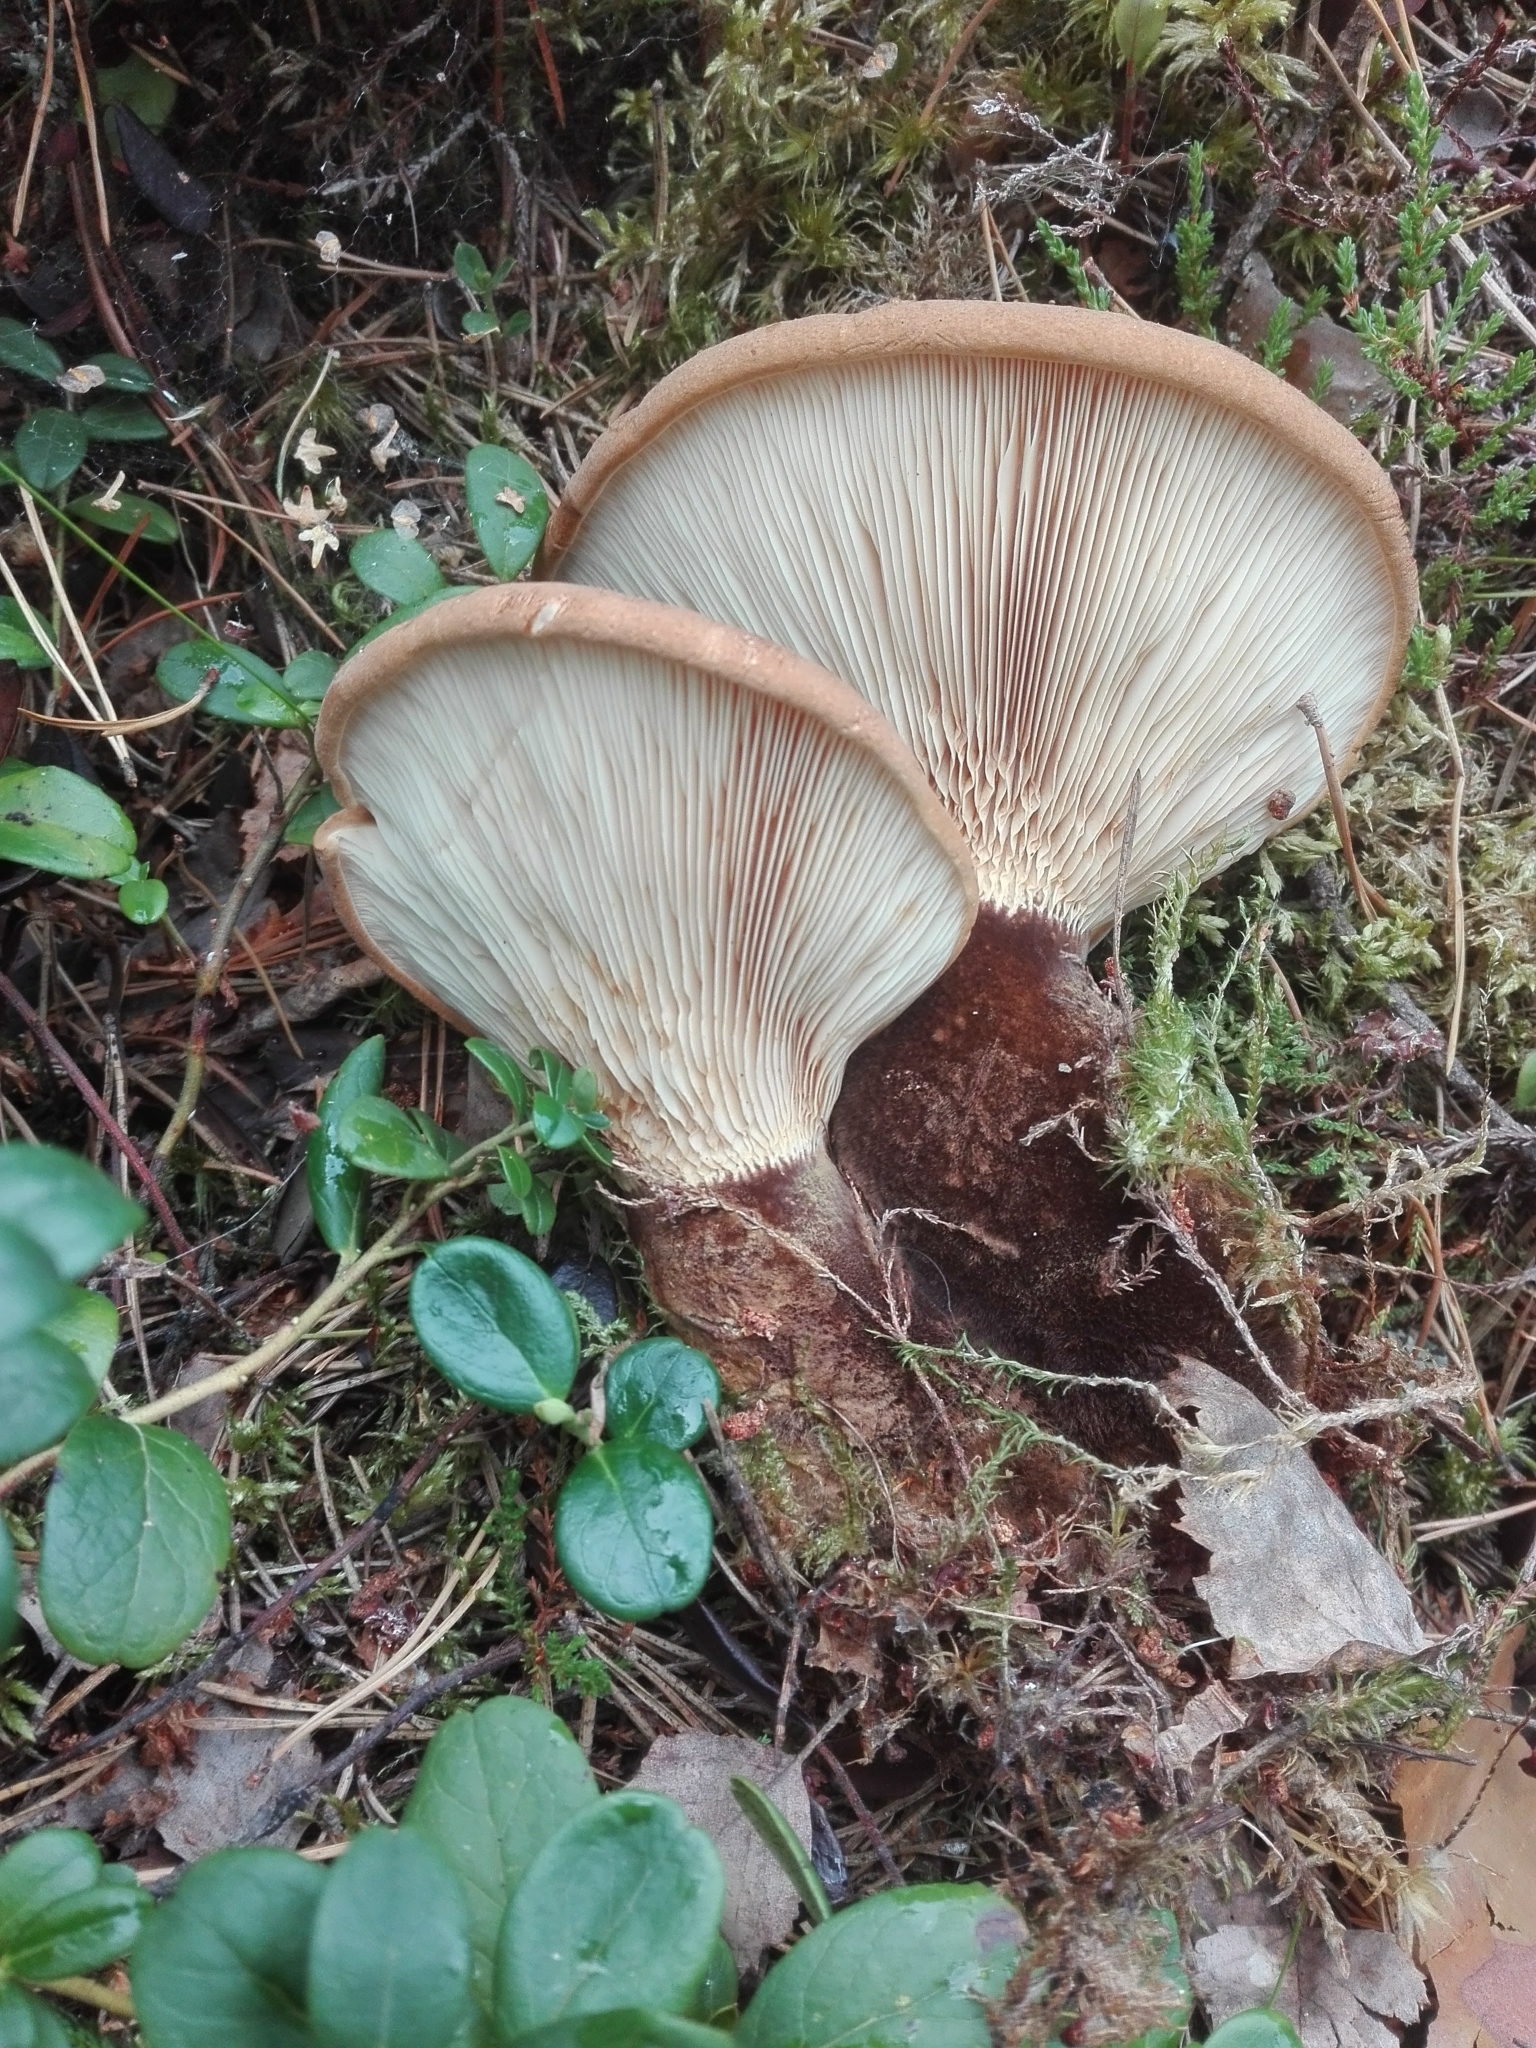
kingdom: Fungi
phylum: Basidiomycota
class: Agaricomycetes
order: Boletales
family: Tapinellaceae
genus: Tapinella
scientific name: Tapinella atrotomentosa
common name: Velvet rollrim
